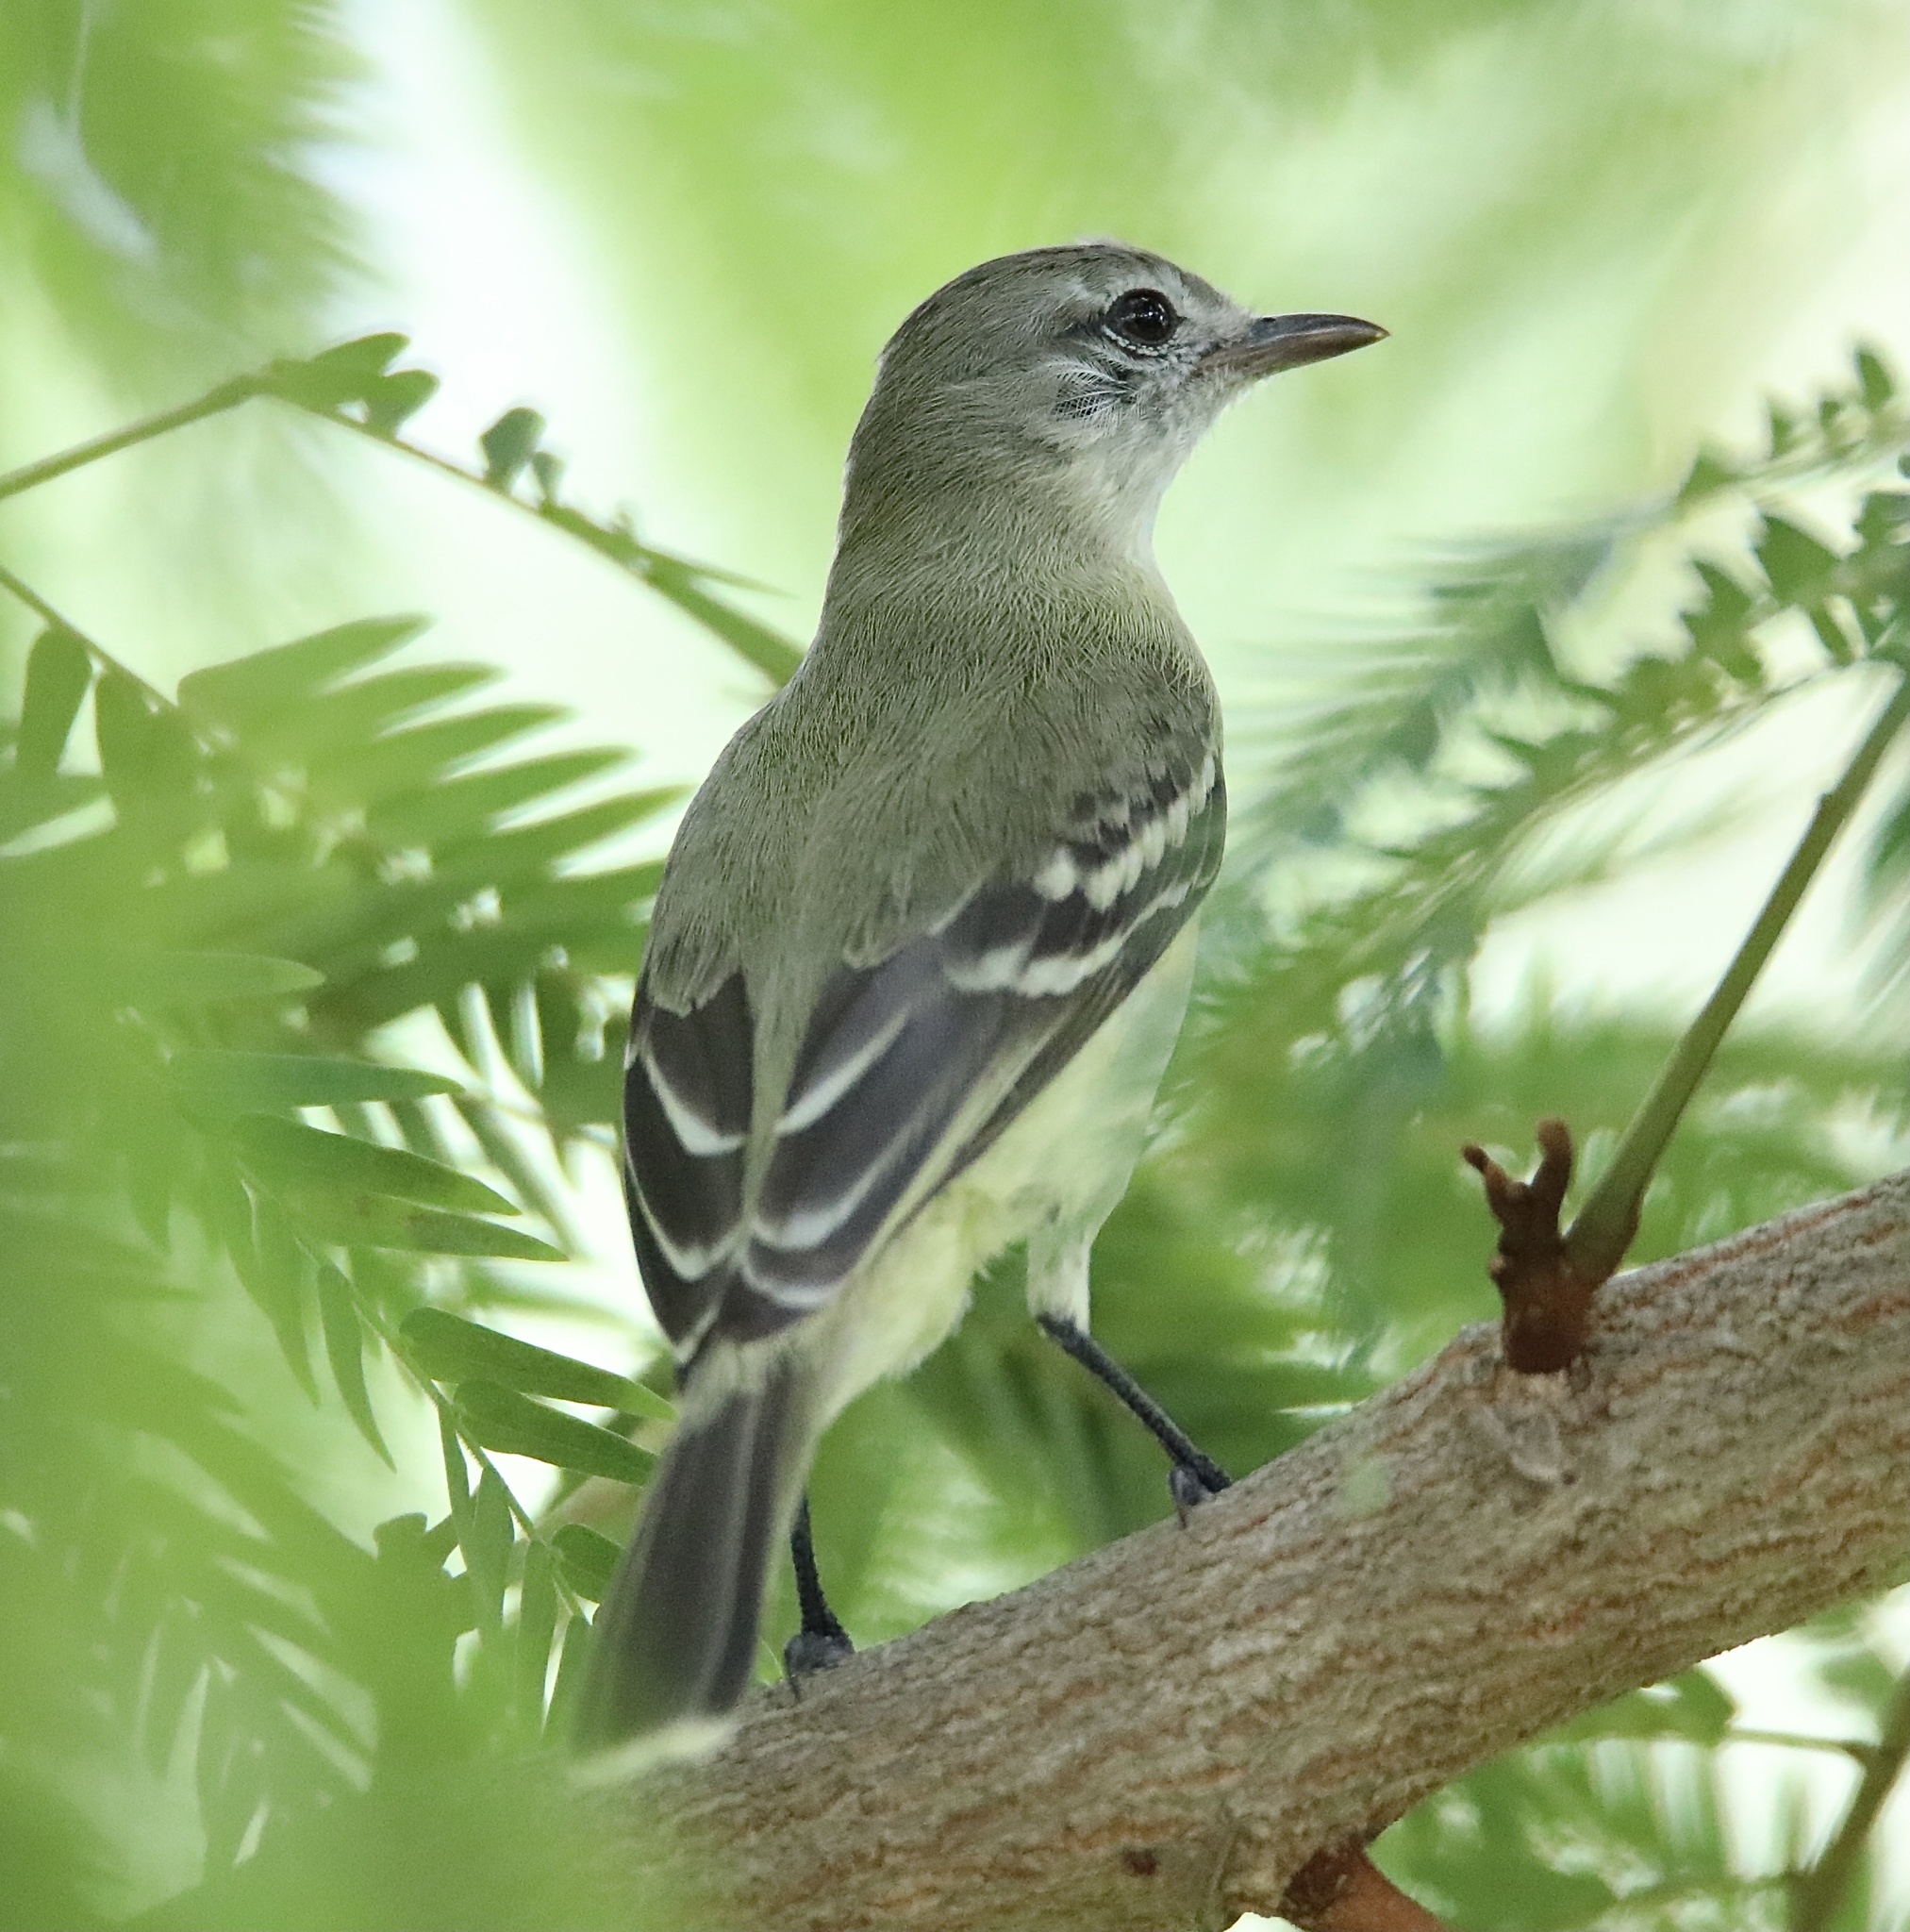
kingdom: Animalia
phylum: Chordata
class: Aves
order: Passeriformes
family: Tyrannidae
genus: Phaeomyias
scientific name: Phaeomyias murina
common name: Mouse-colored tyrannulet
